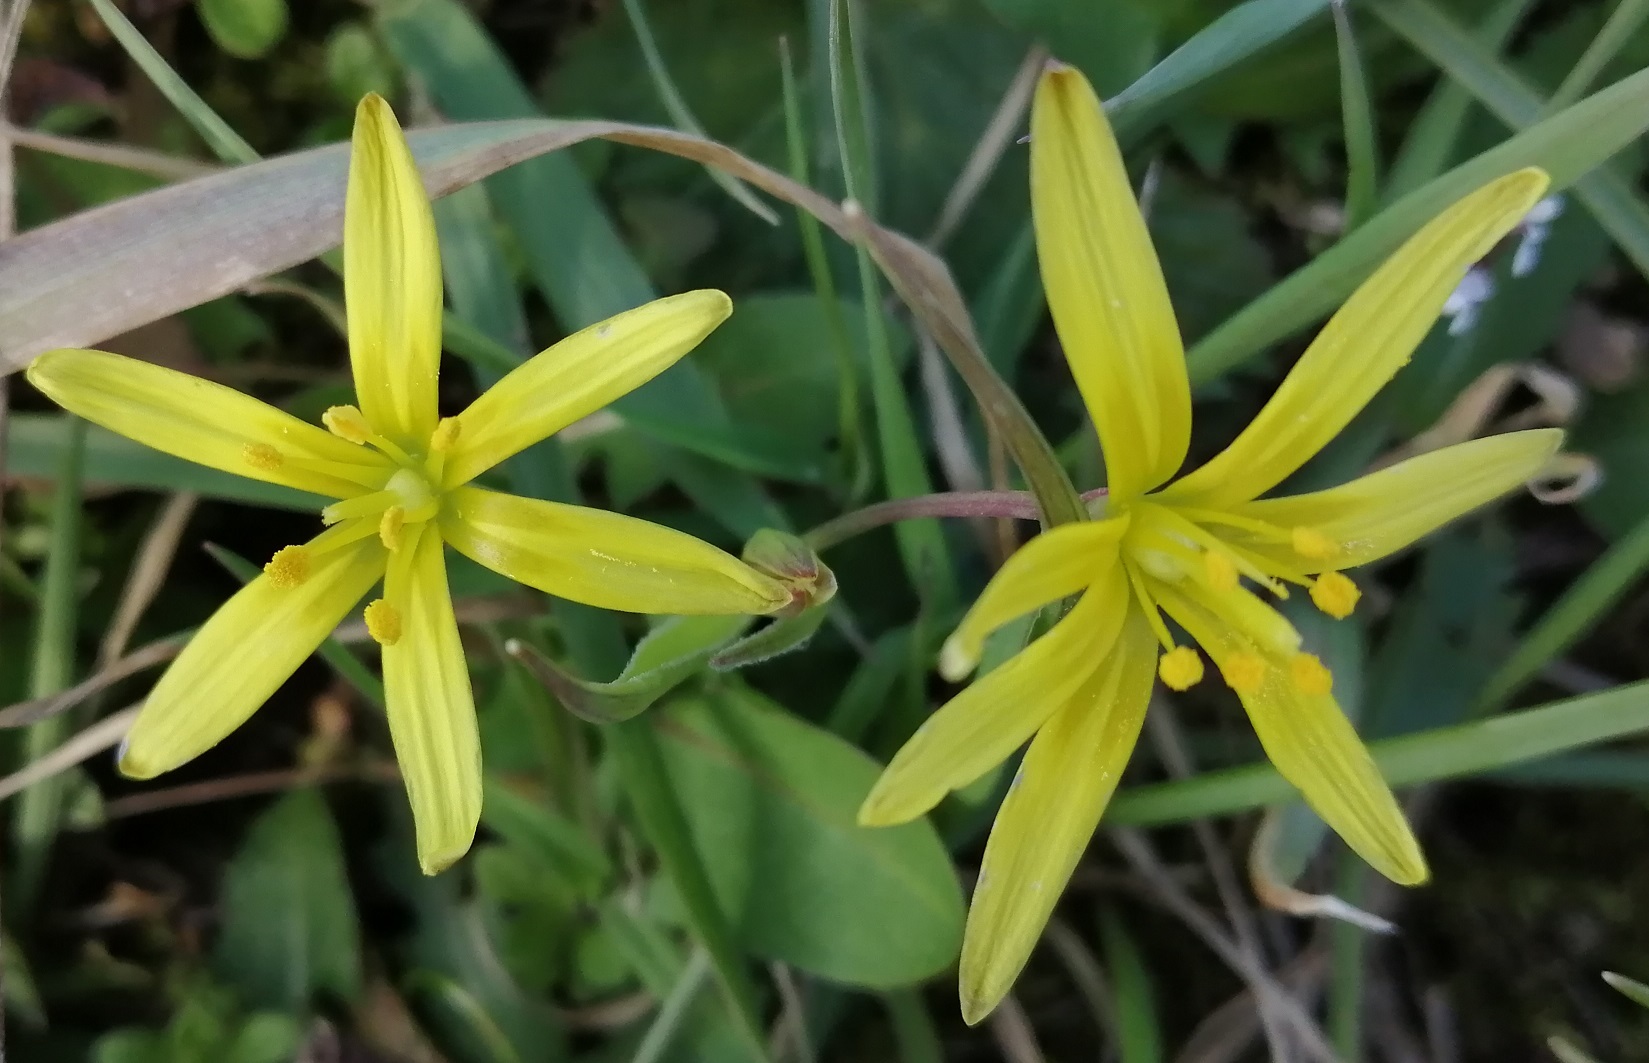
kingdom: Plantae
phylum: Tracheophyta
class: Liliopsida
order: Liliales
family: Liliaceae
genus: Gagea
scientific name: Gagea pratensis
